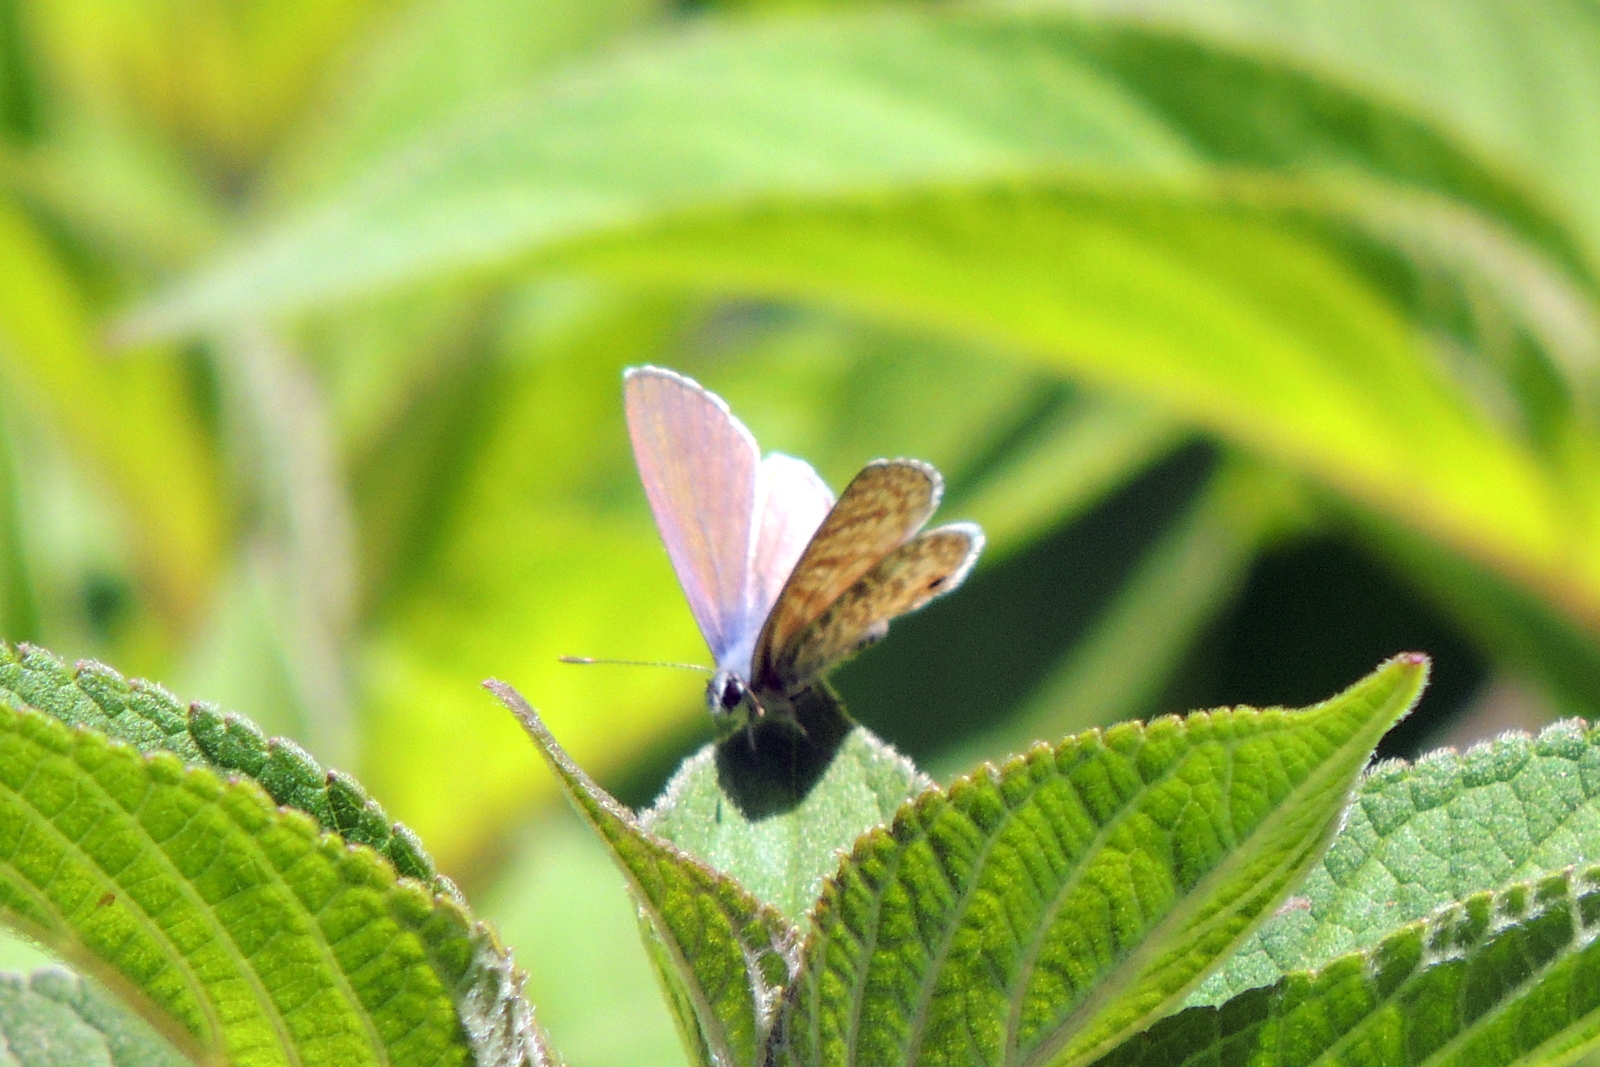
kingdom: Animalia
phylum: Arthropoda
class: Insecta
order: Lepidoptera
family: Lycaenidae
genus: Leptotes
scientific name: Leptotes marina
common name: Marine blue
